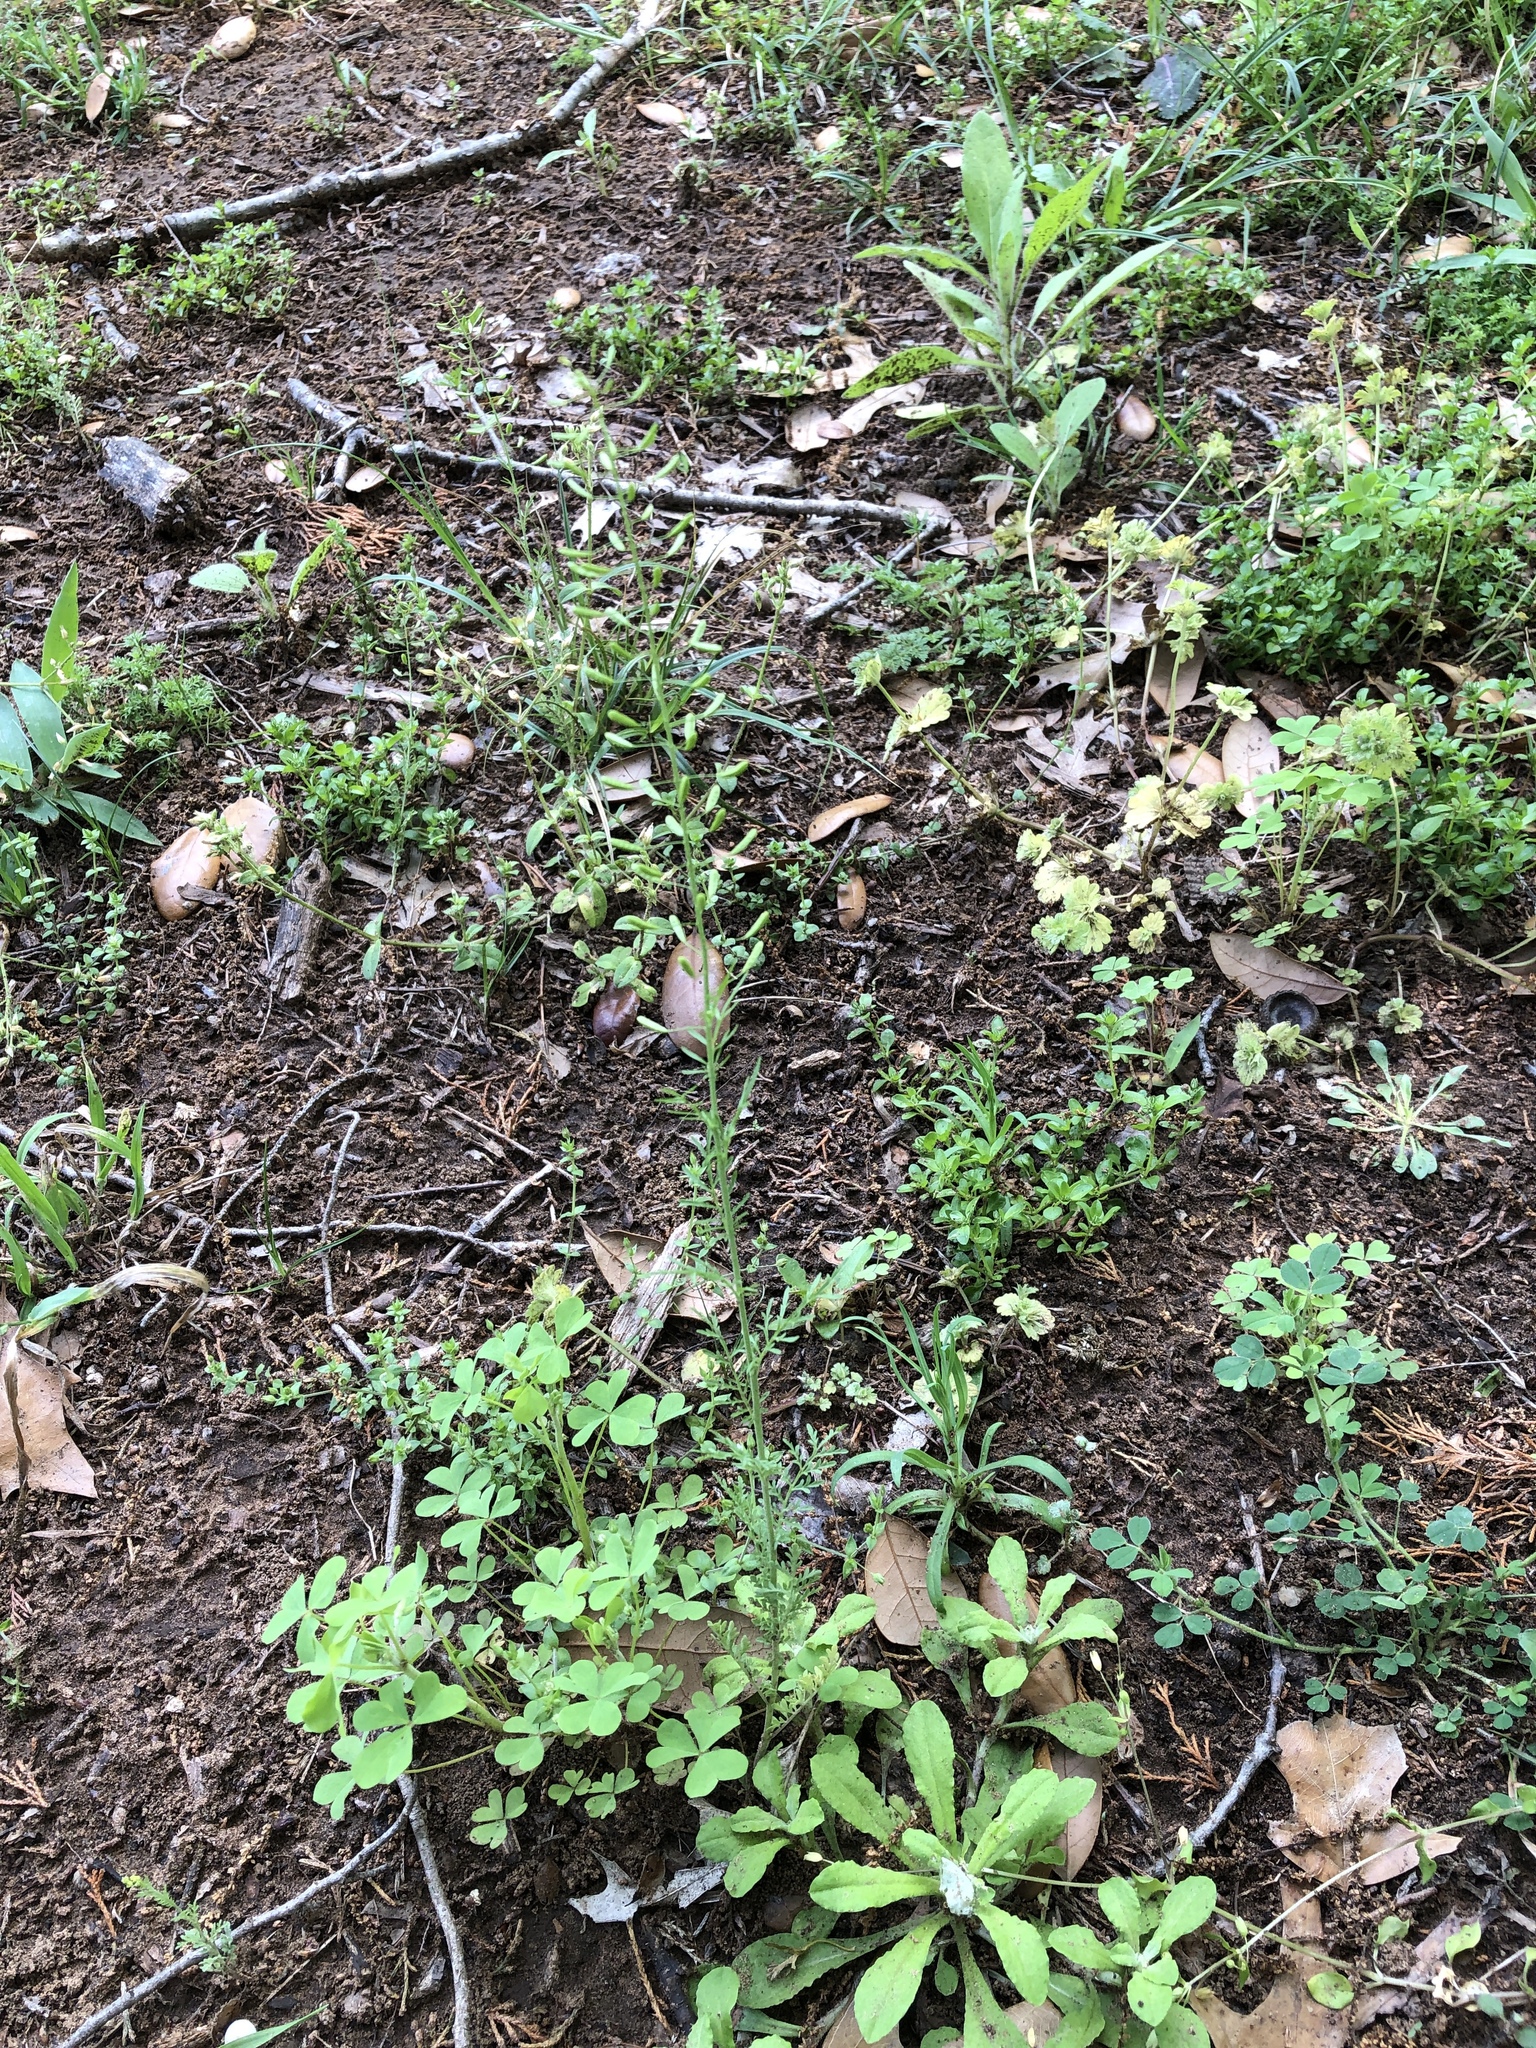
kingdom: Plantae
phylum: Tracheophyta
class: Magnoliopsida
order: Brassicales
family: Brassicaceae
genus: Descurainia
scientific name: Descurainia pinnata
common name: Western tansy mustard
